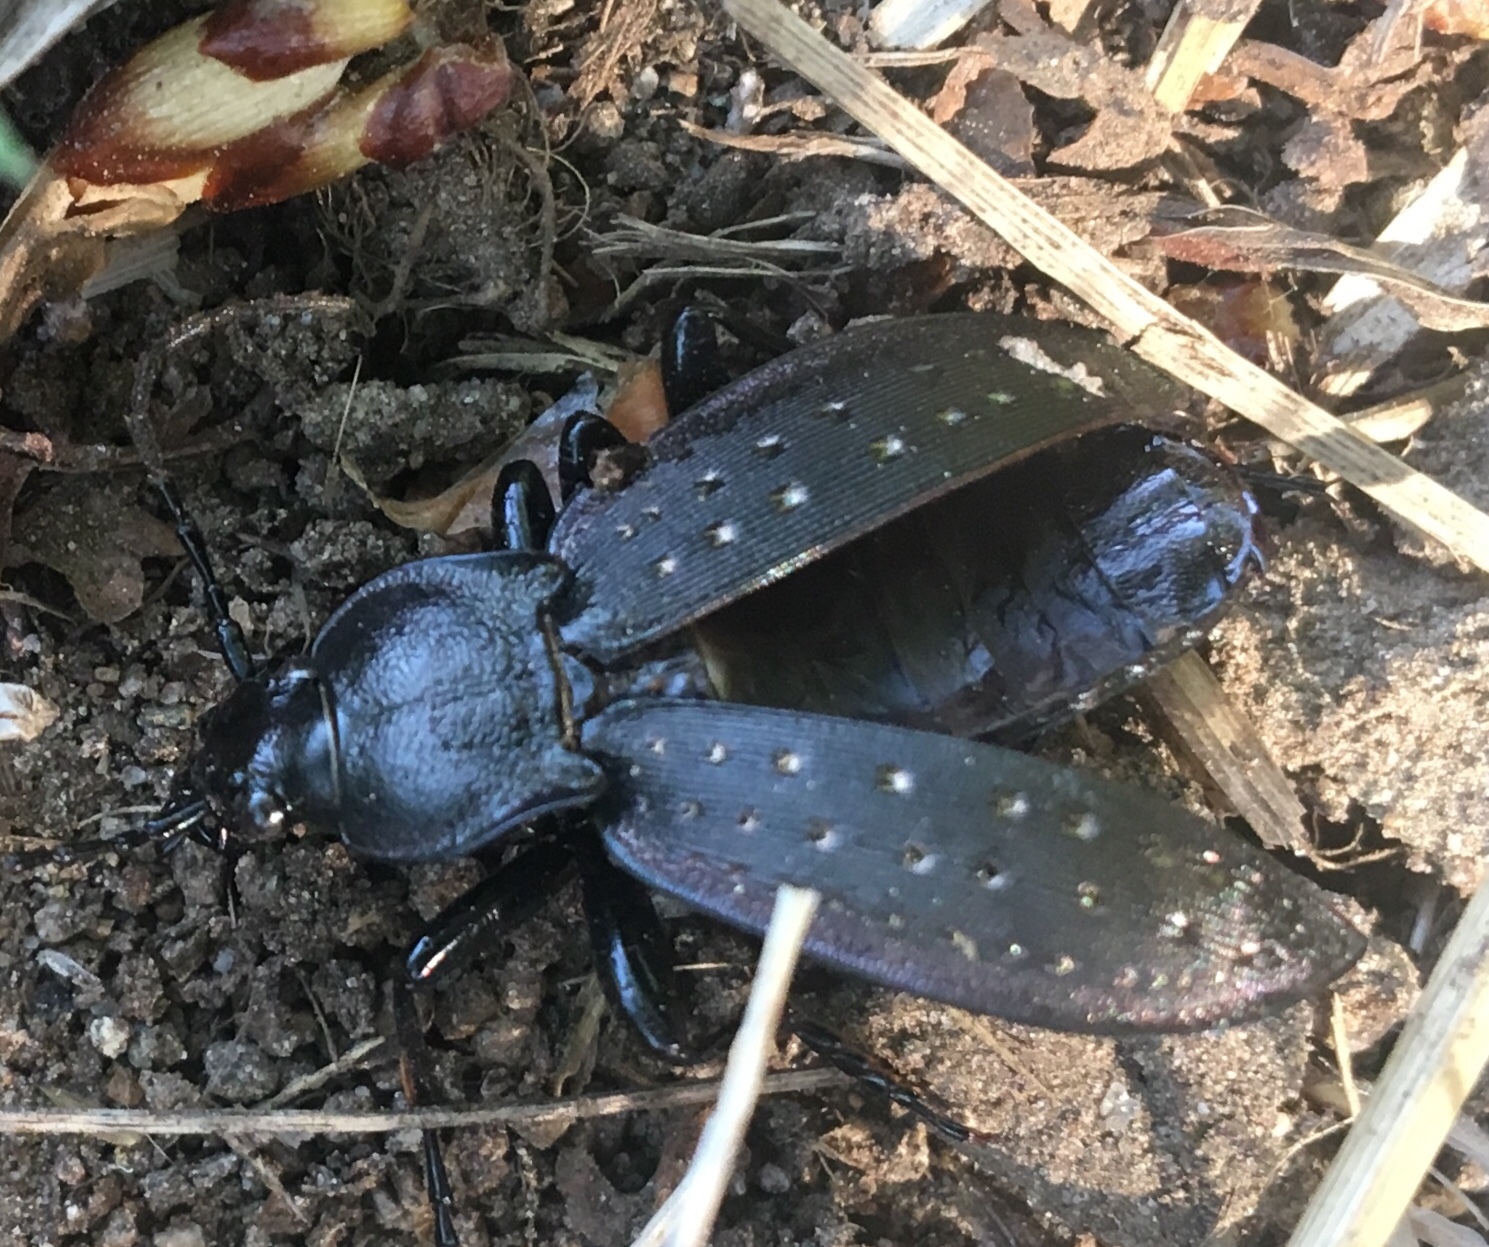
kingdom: Animalia
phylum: Arthropoda
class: Insecta
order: Coleoptera
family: Carabidae
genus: Carabus
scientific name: Carabus hortensis
